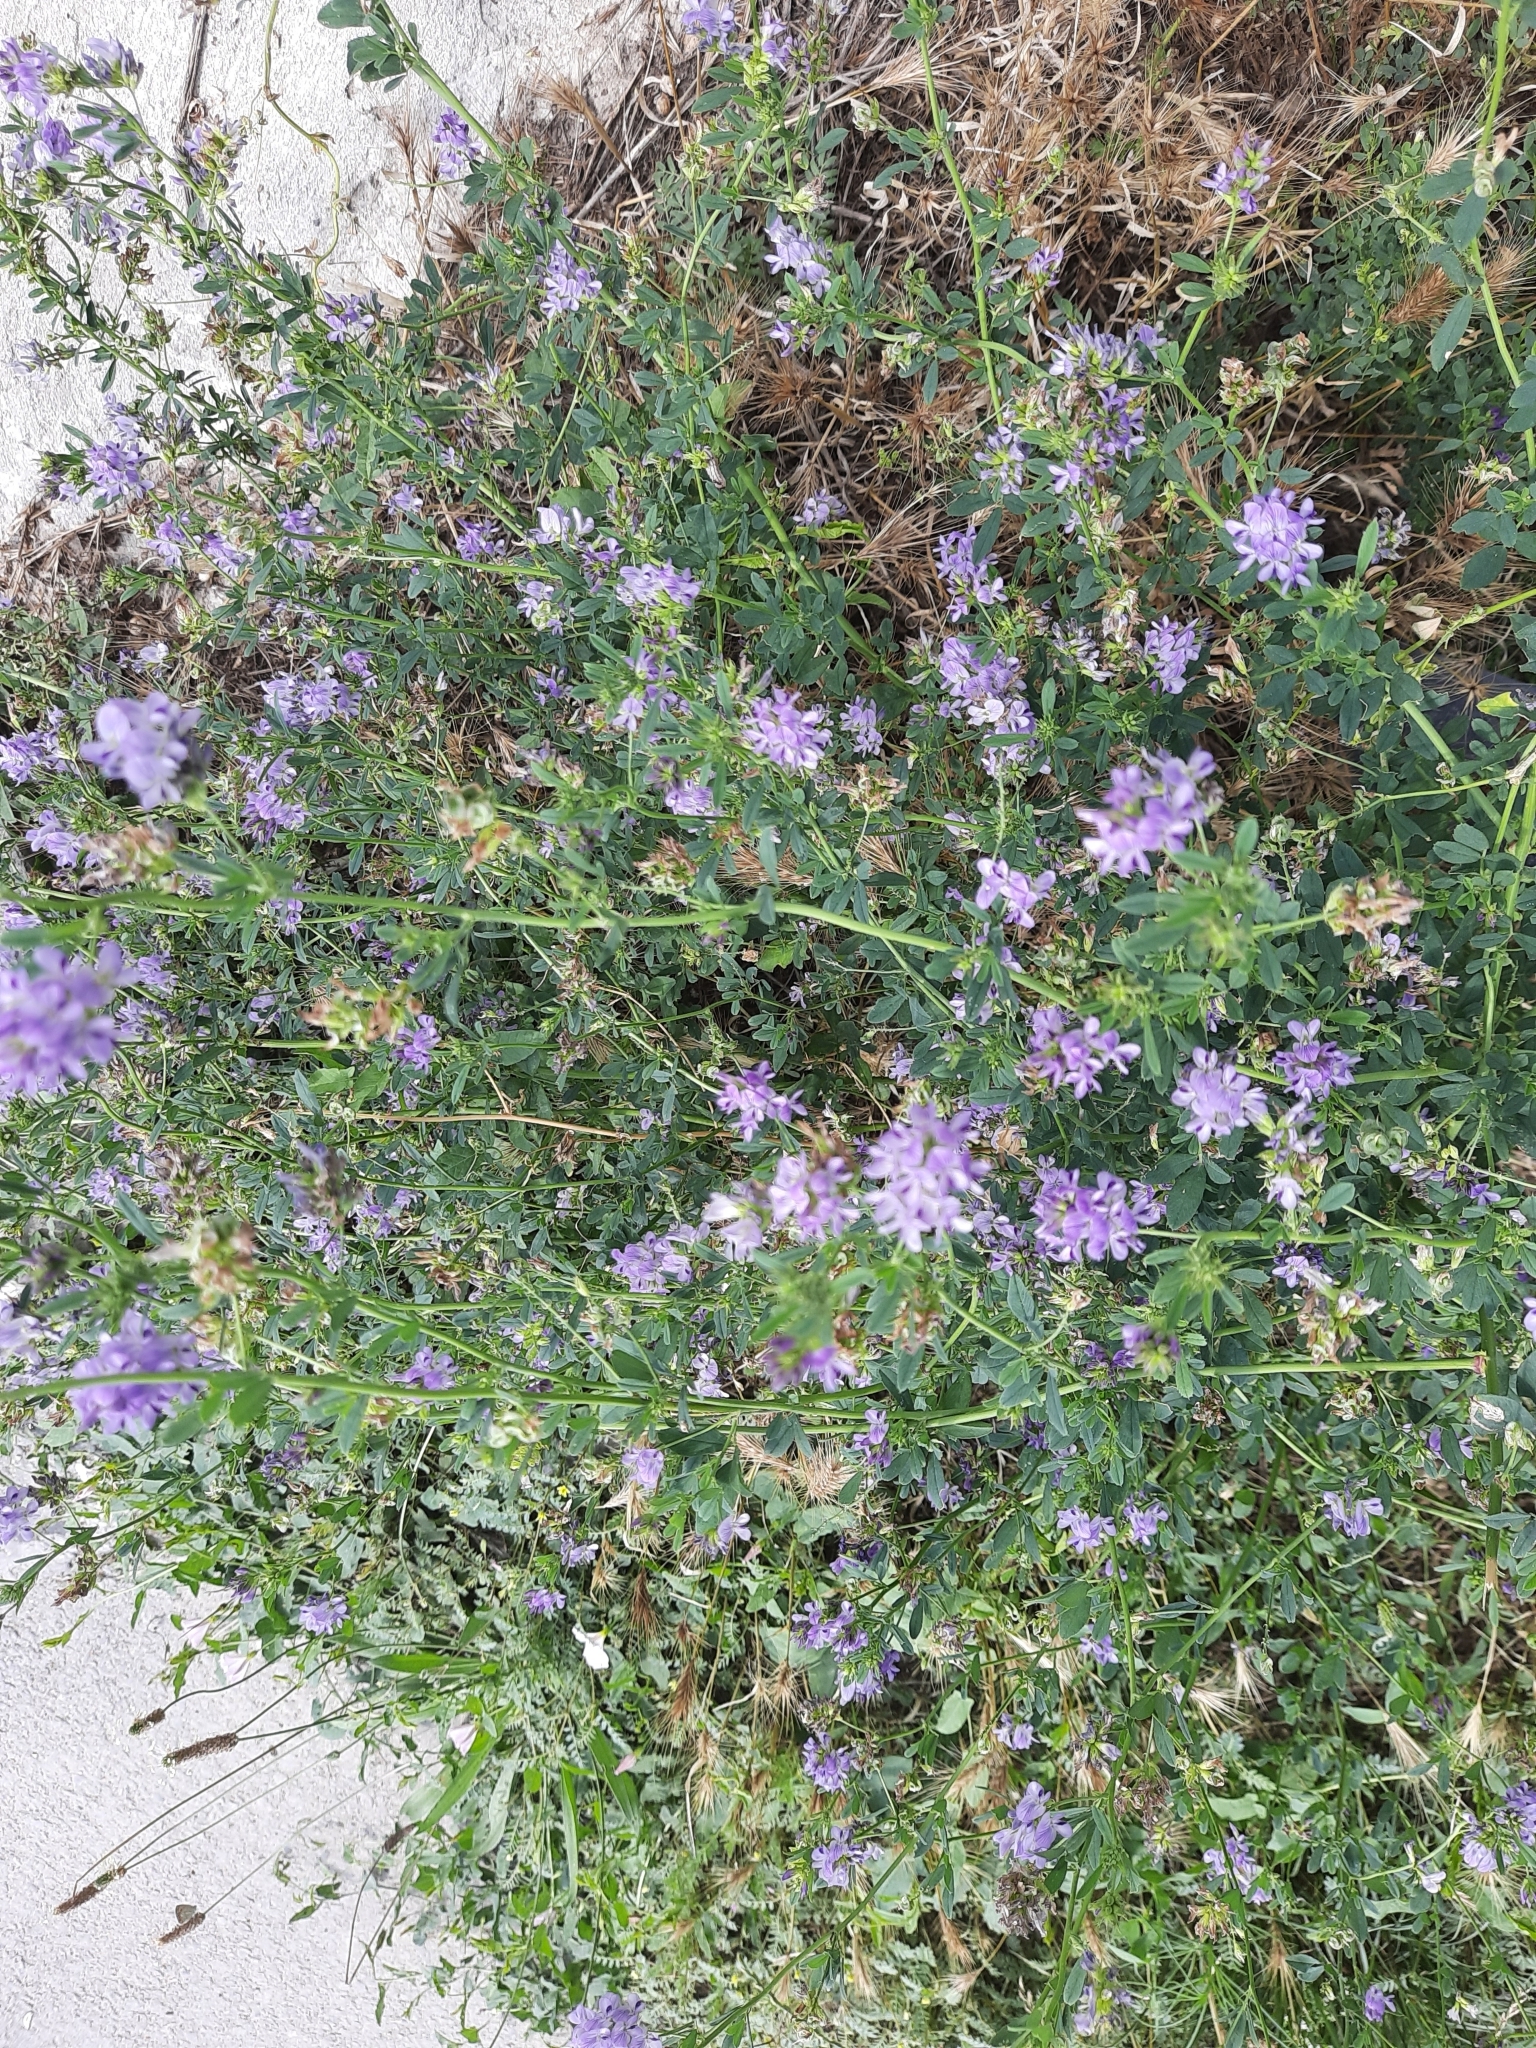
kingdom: Plantae
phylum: Tracheophyta
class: Magnoliopsida
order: Fabales
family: Fabaceae
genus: Medicago
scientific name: Medicago varia
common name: Sand lucerne
